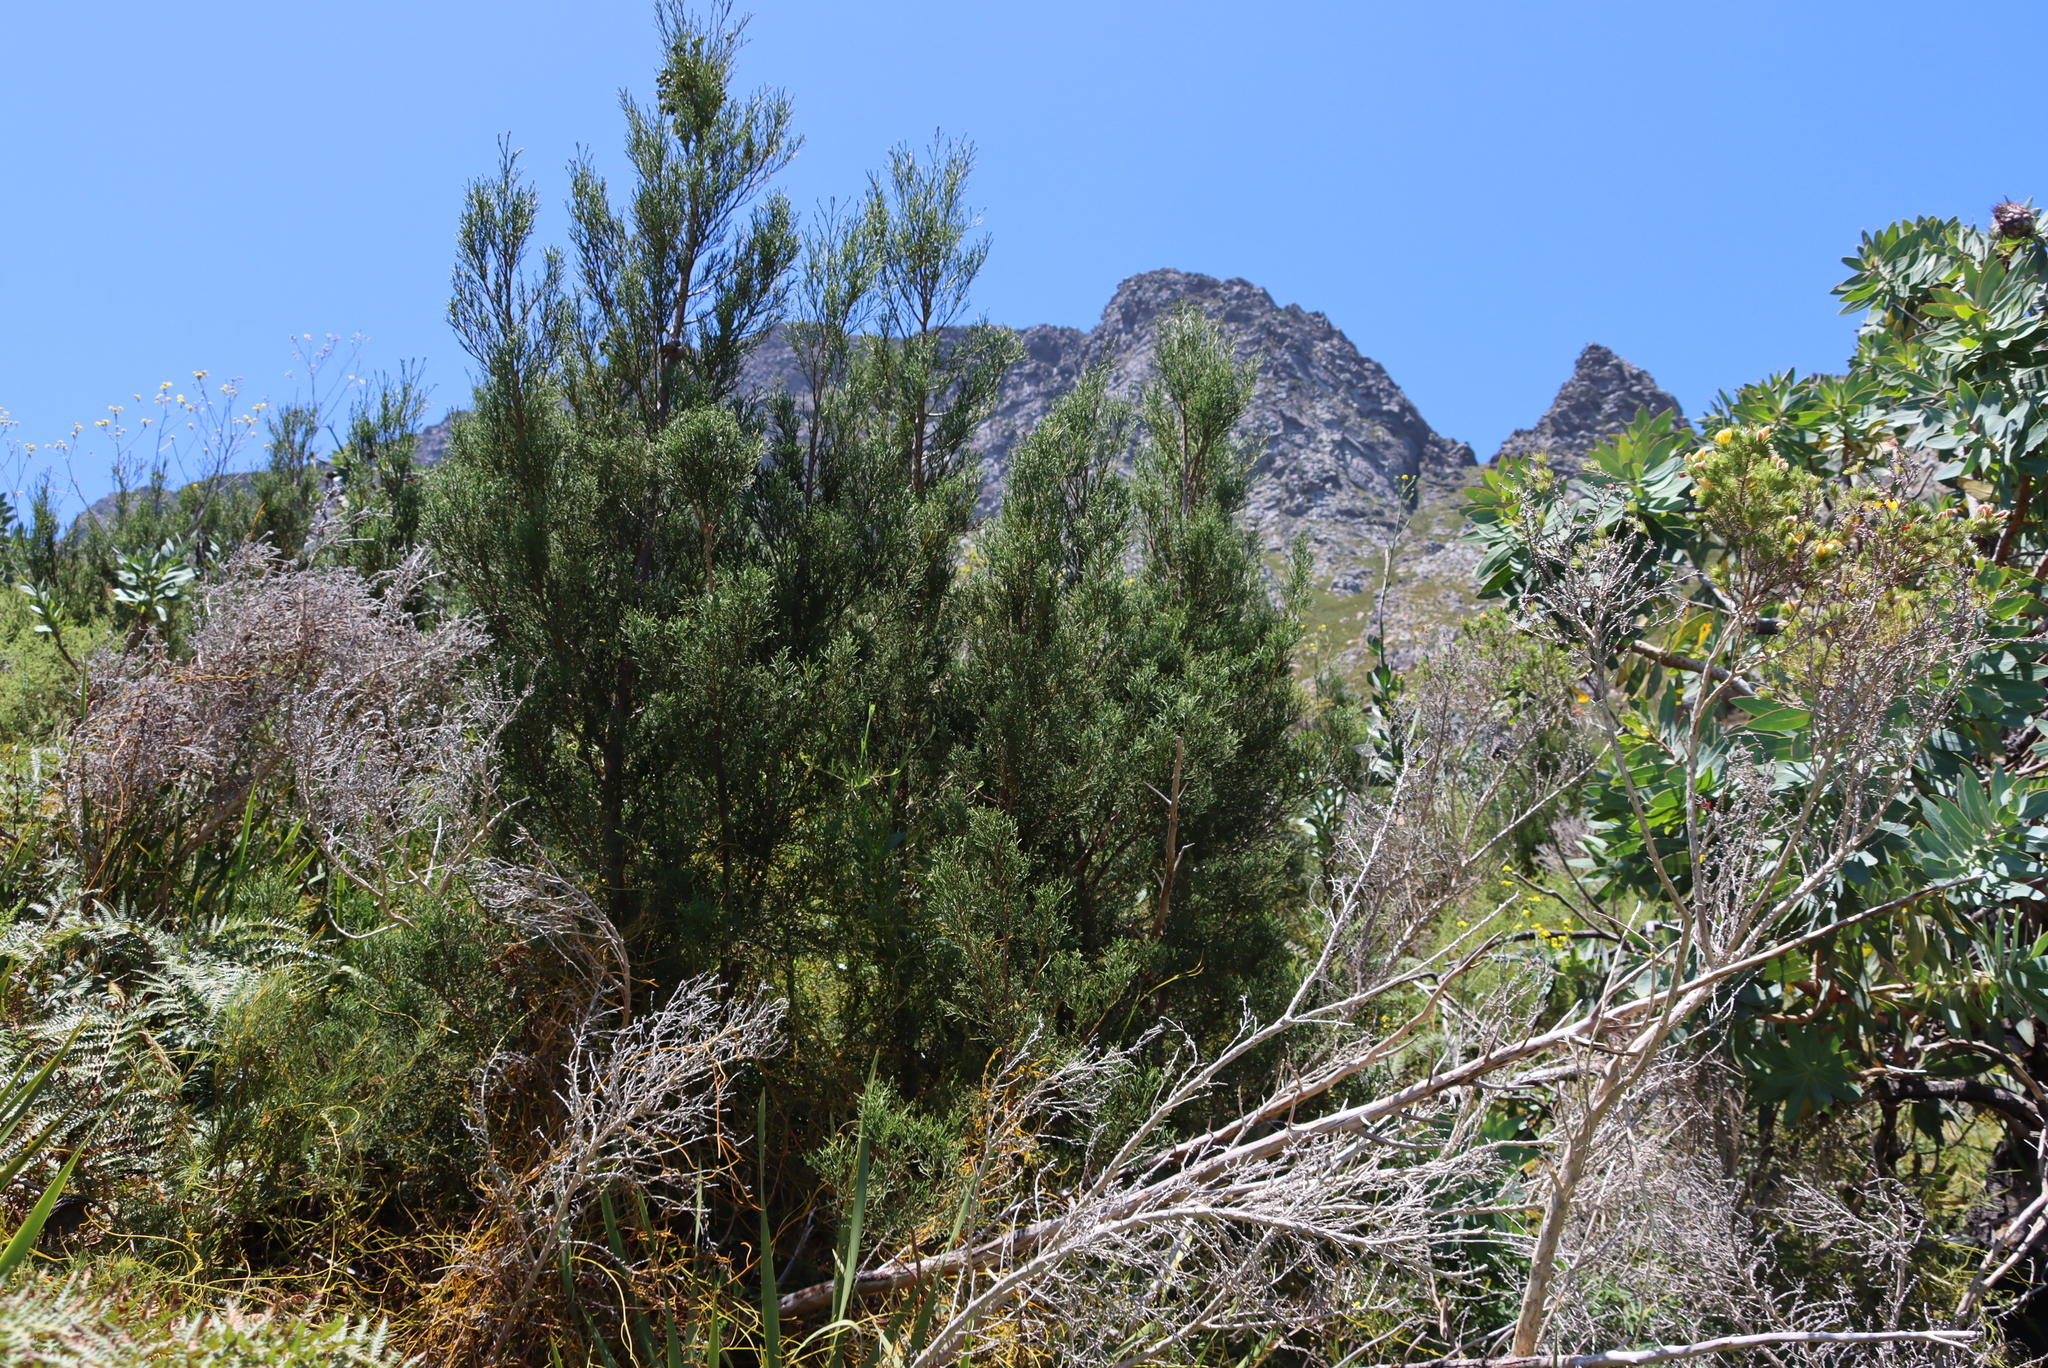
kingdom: Plantae
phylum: Tracheophyta
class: Pinopsida
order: Pinales
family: Cupressaceae
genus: Widdringtonia
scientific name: Widdringtonia nodiflora
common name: Cape cypress
